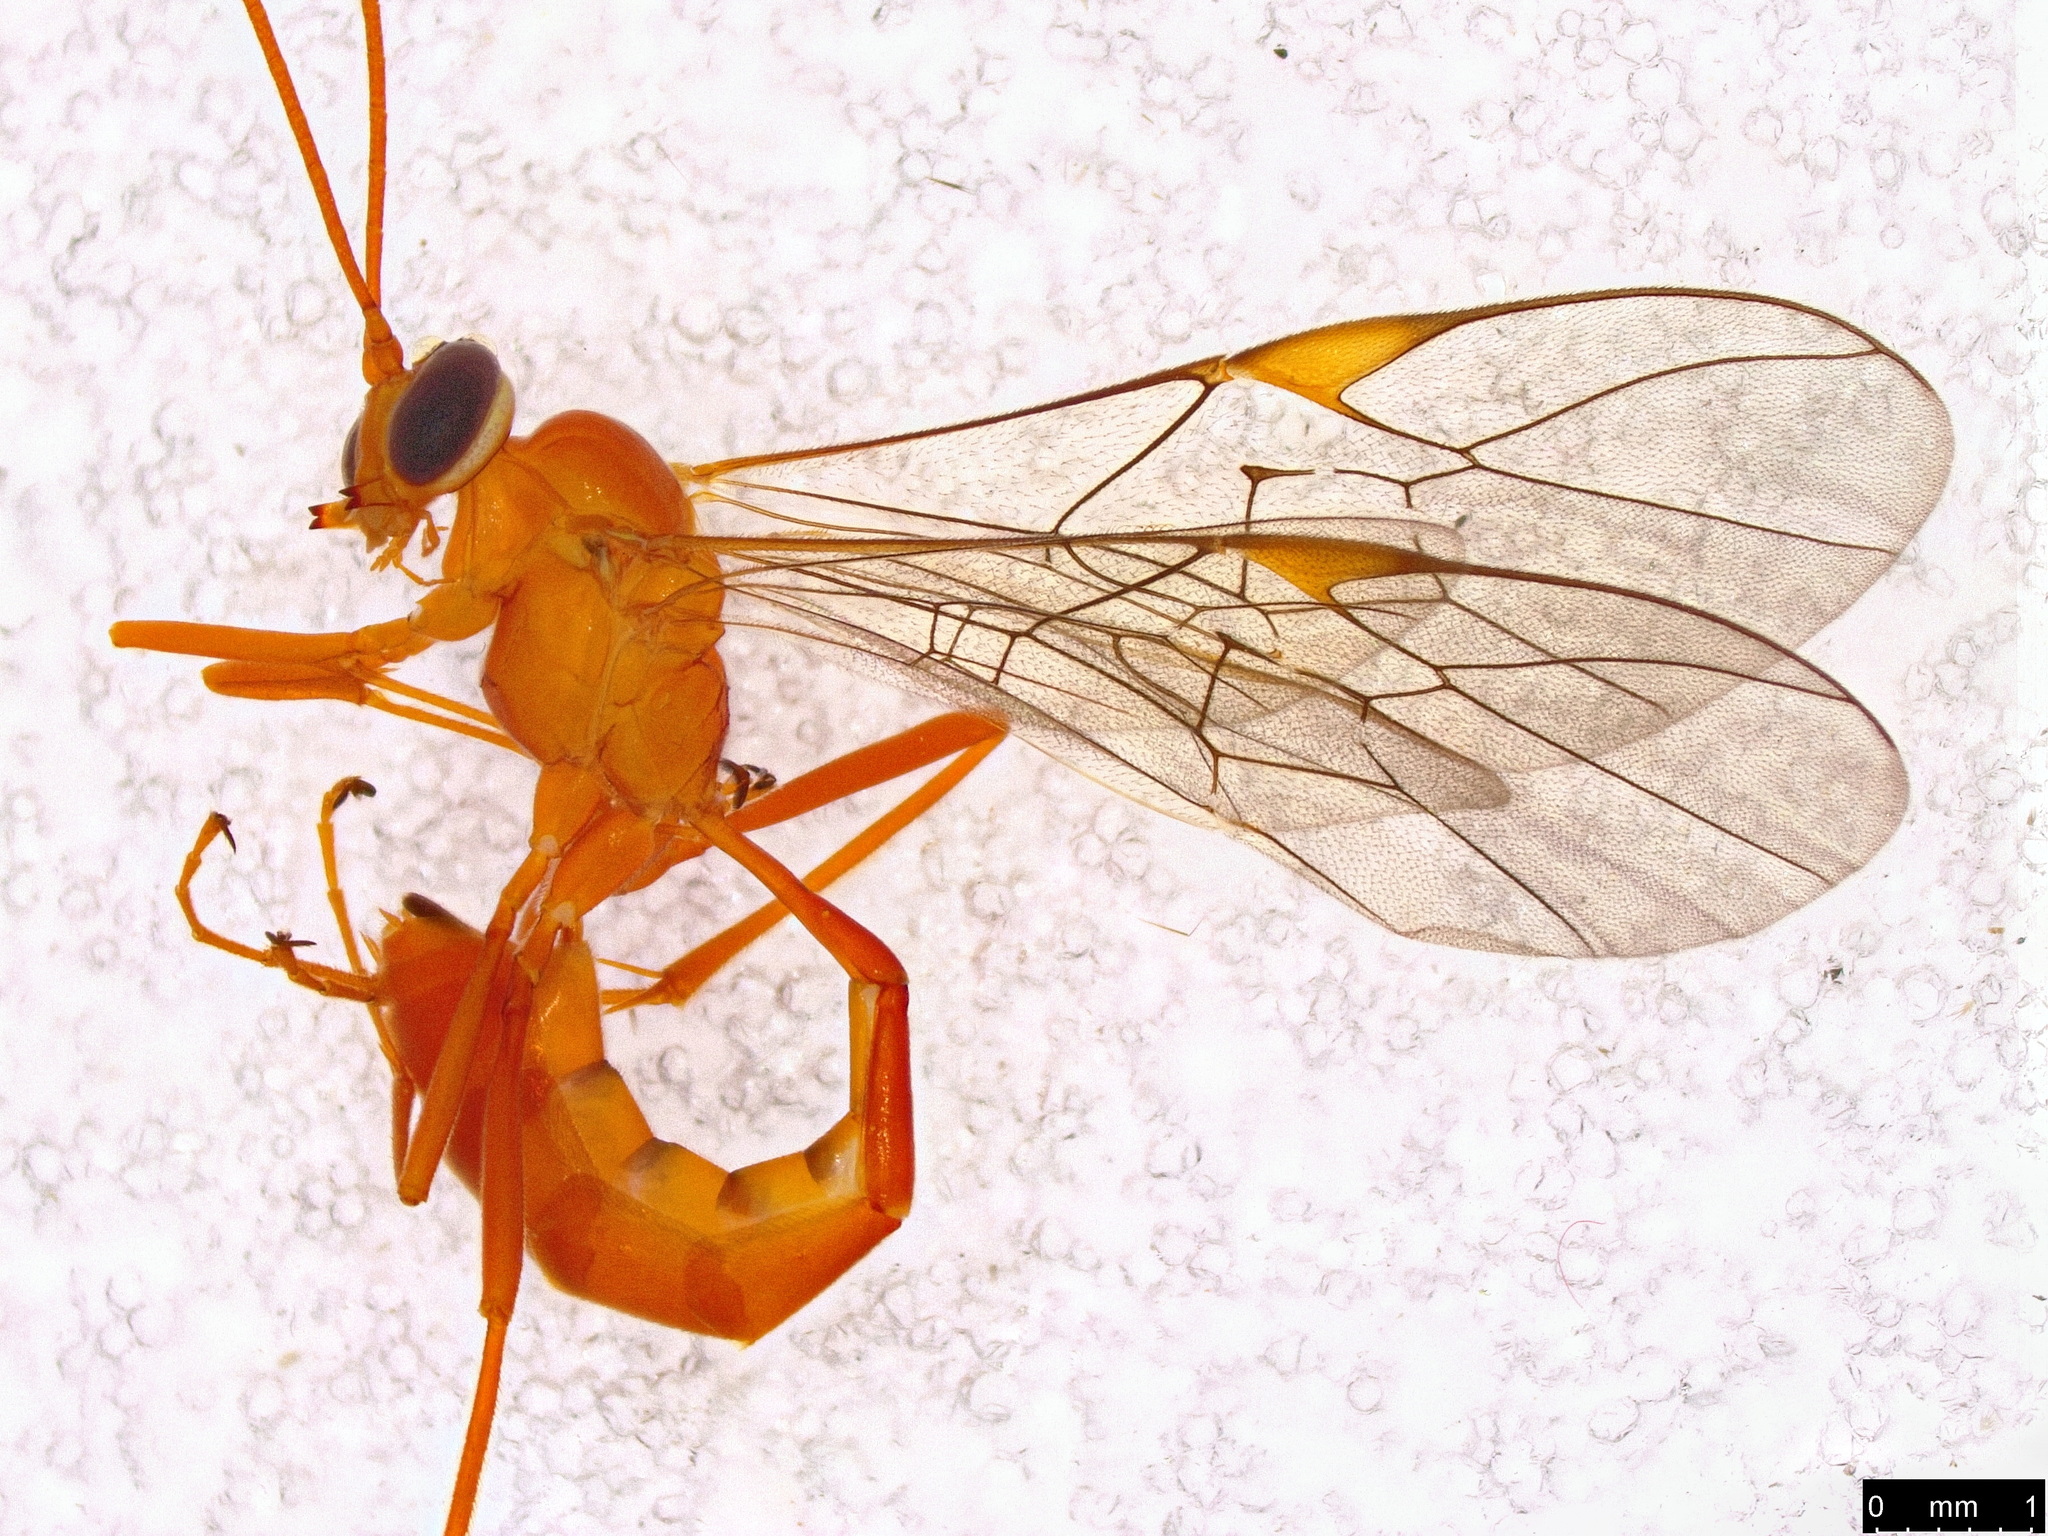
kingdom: Animalia
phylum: Arthropoda
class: Insecta
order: Hymenoptera
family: Ichneumonidae
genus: Xylophion
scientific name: Xylophion xylus
